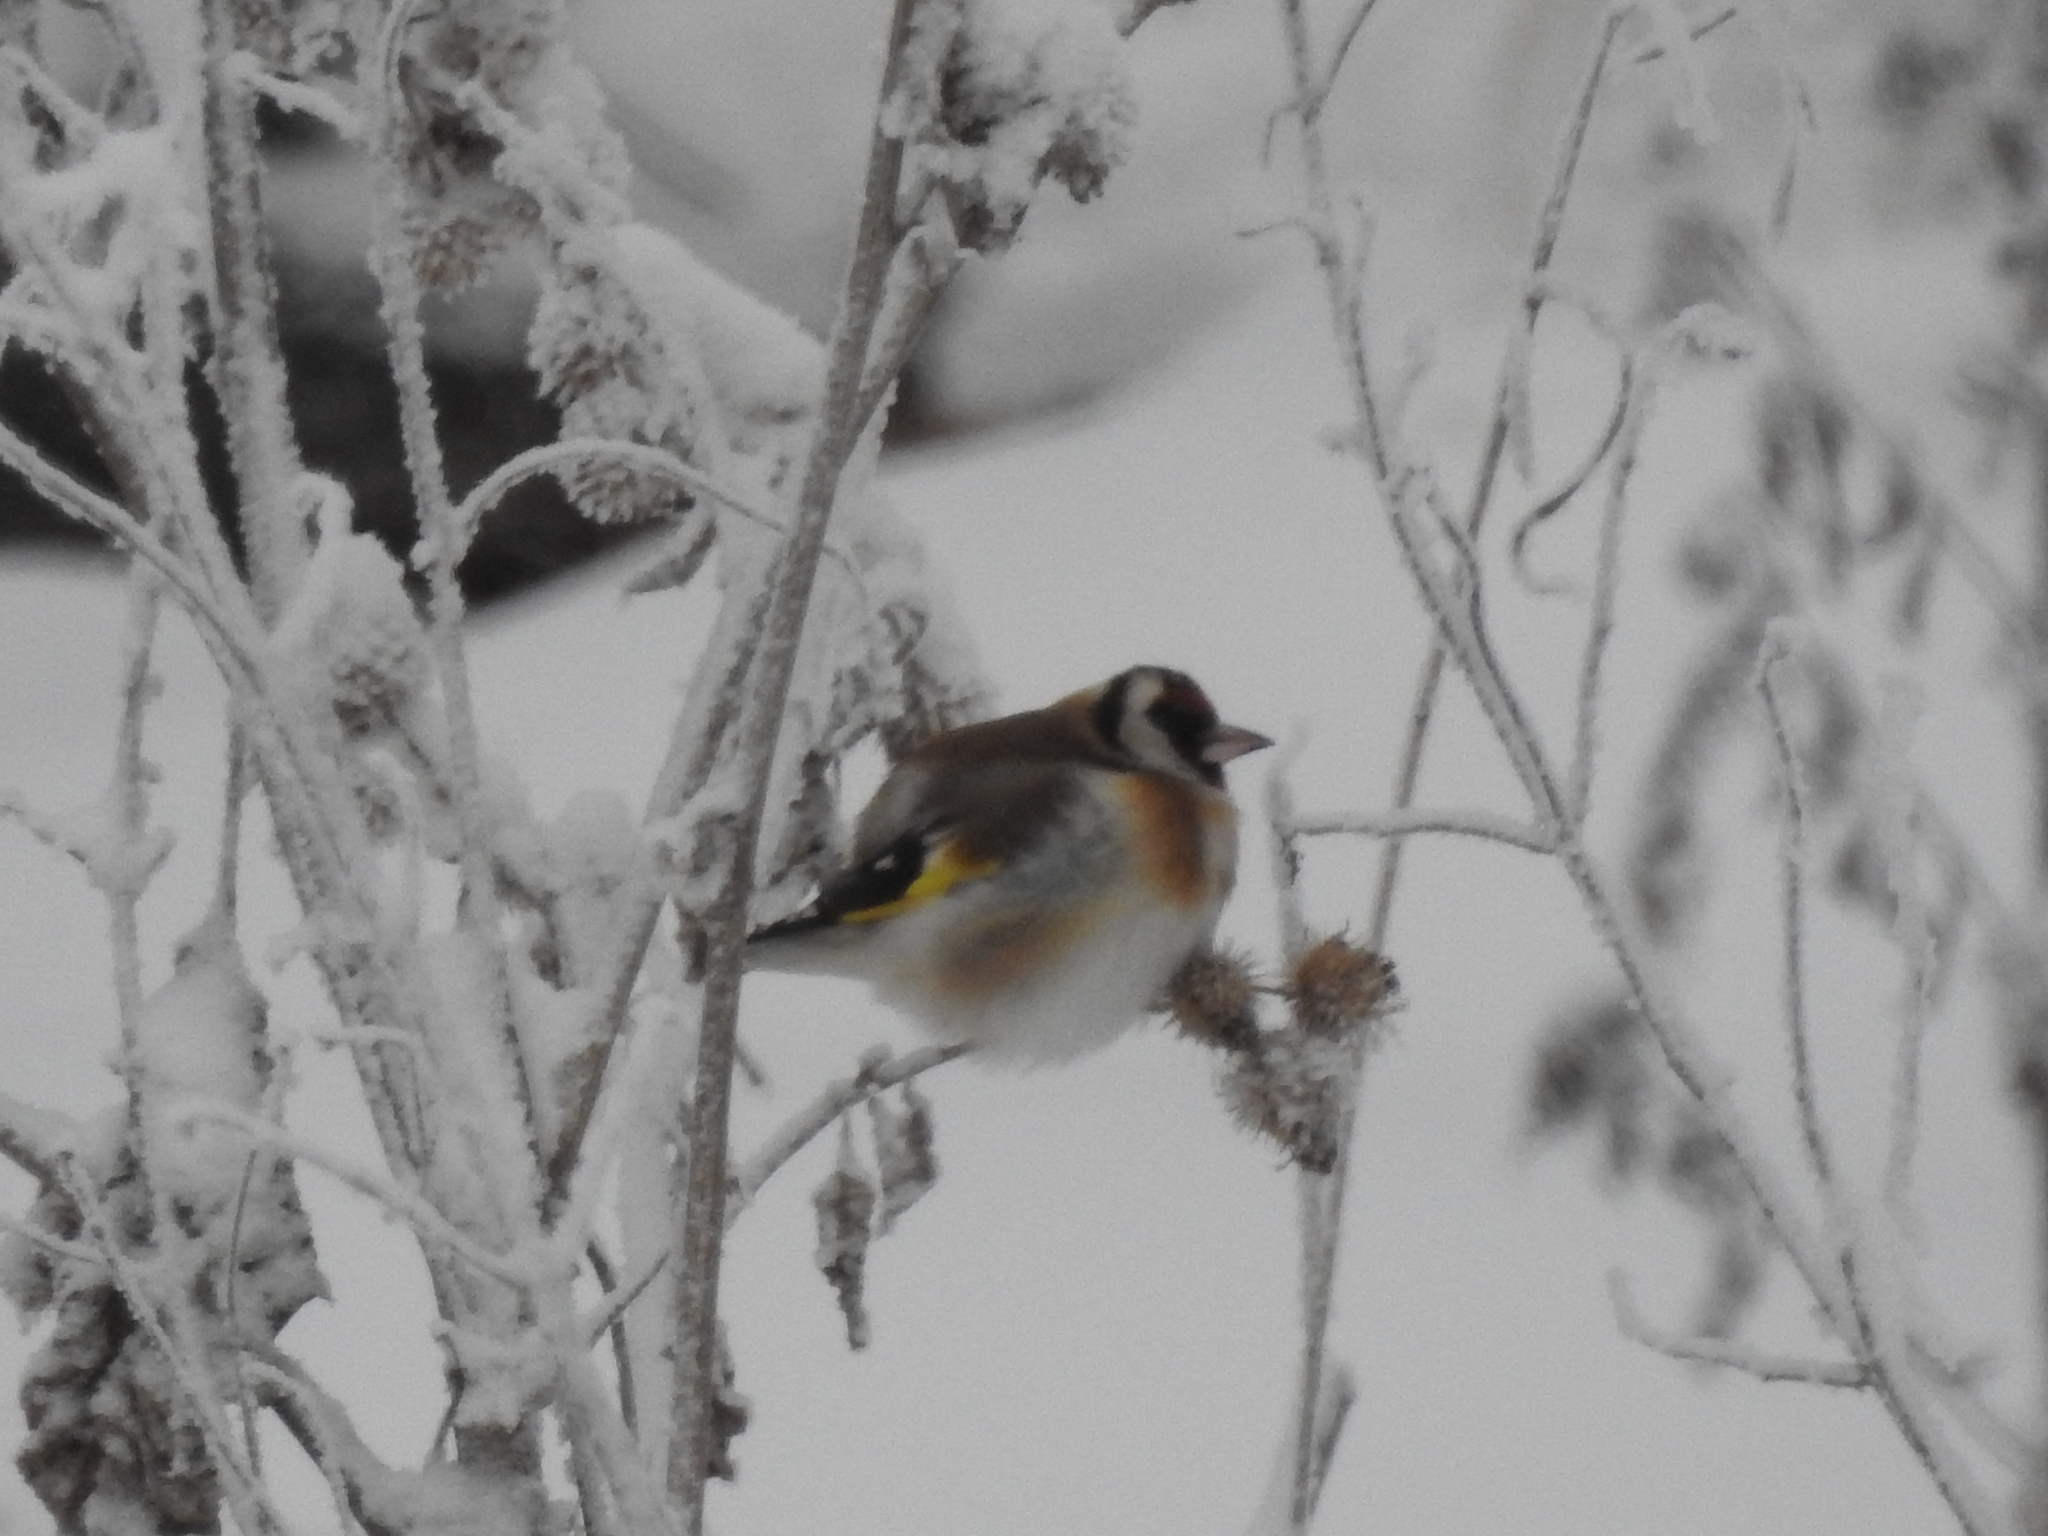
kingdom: Animalia
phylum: Chordata
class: Aves
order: Passeriformes
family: Fringillidae
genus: Carduelis
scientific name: Carduelis carduelis
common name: European goldfinch
